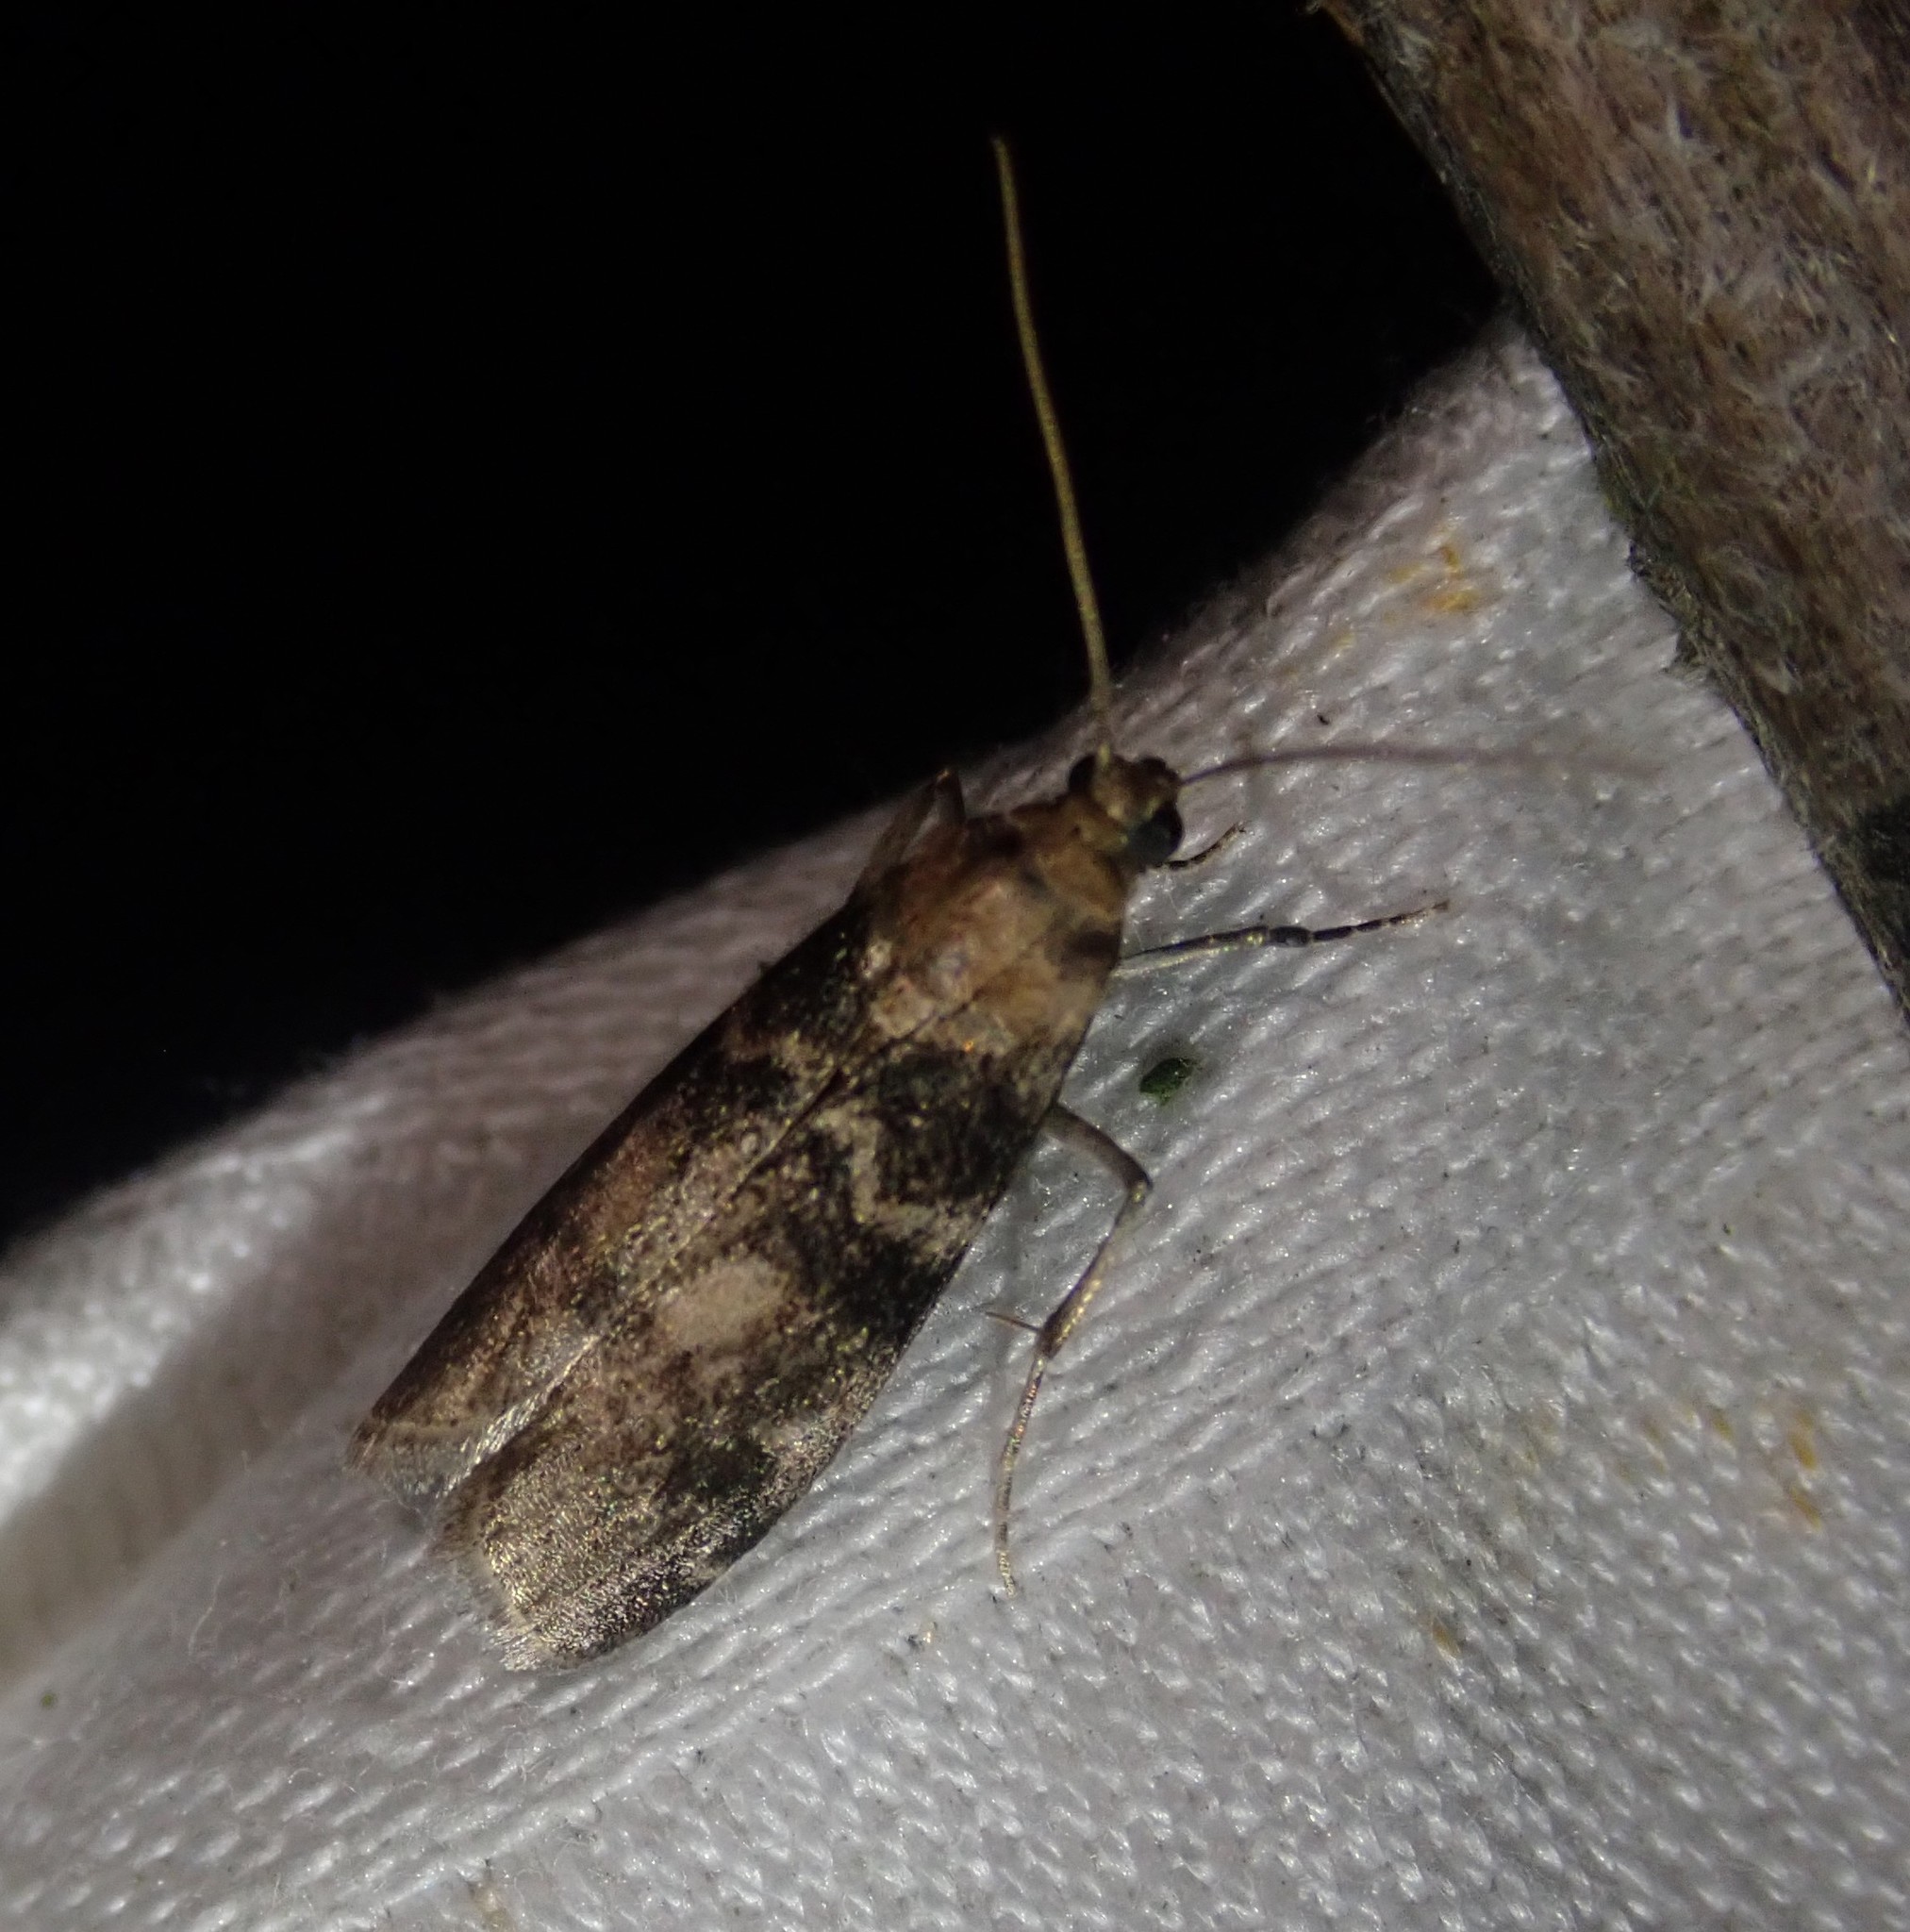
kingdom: Animalia
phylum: Arthropoda
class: Insecta
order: Lepidoptera
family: Pyralidae
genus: Euzophera
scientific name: Euzophera pinguis
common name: Ash-bark knot-horn
